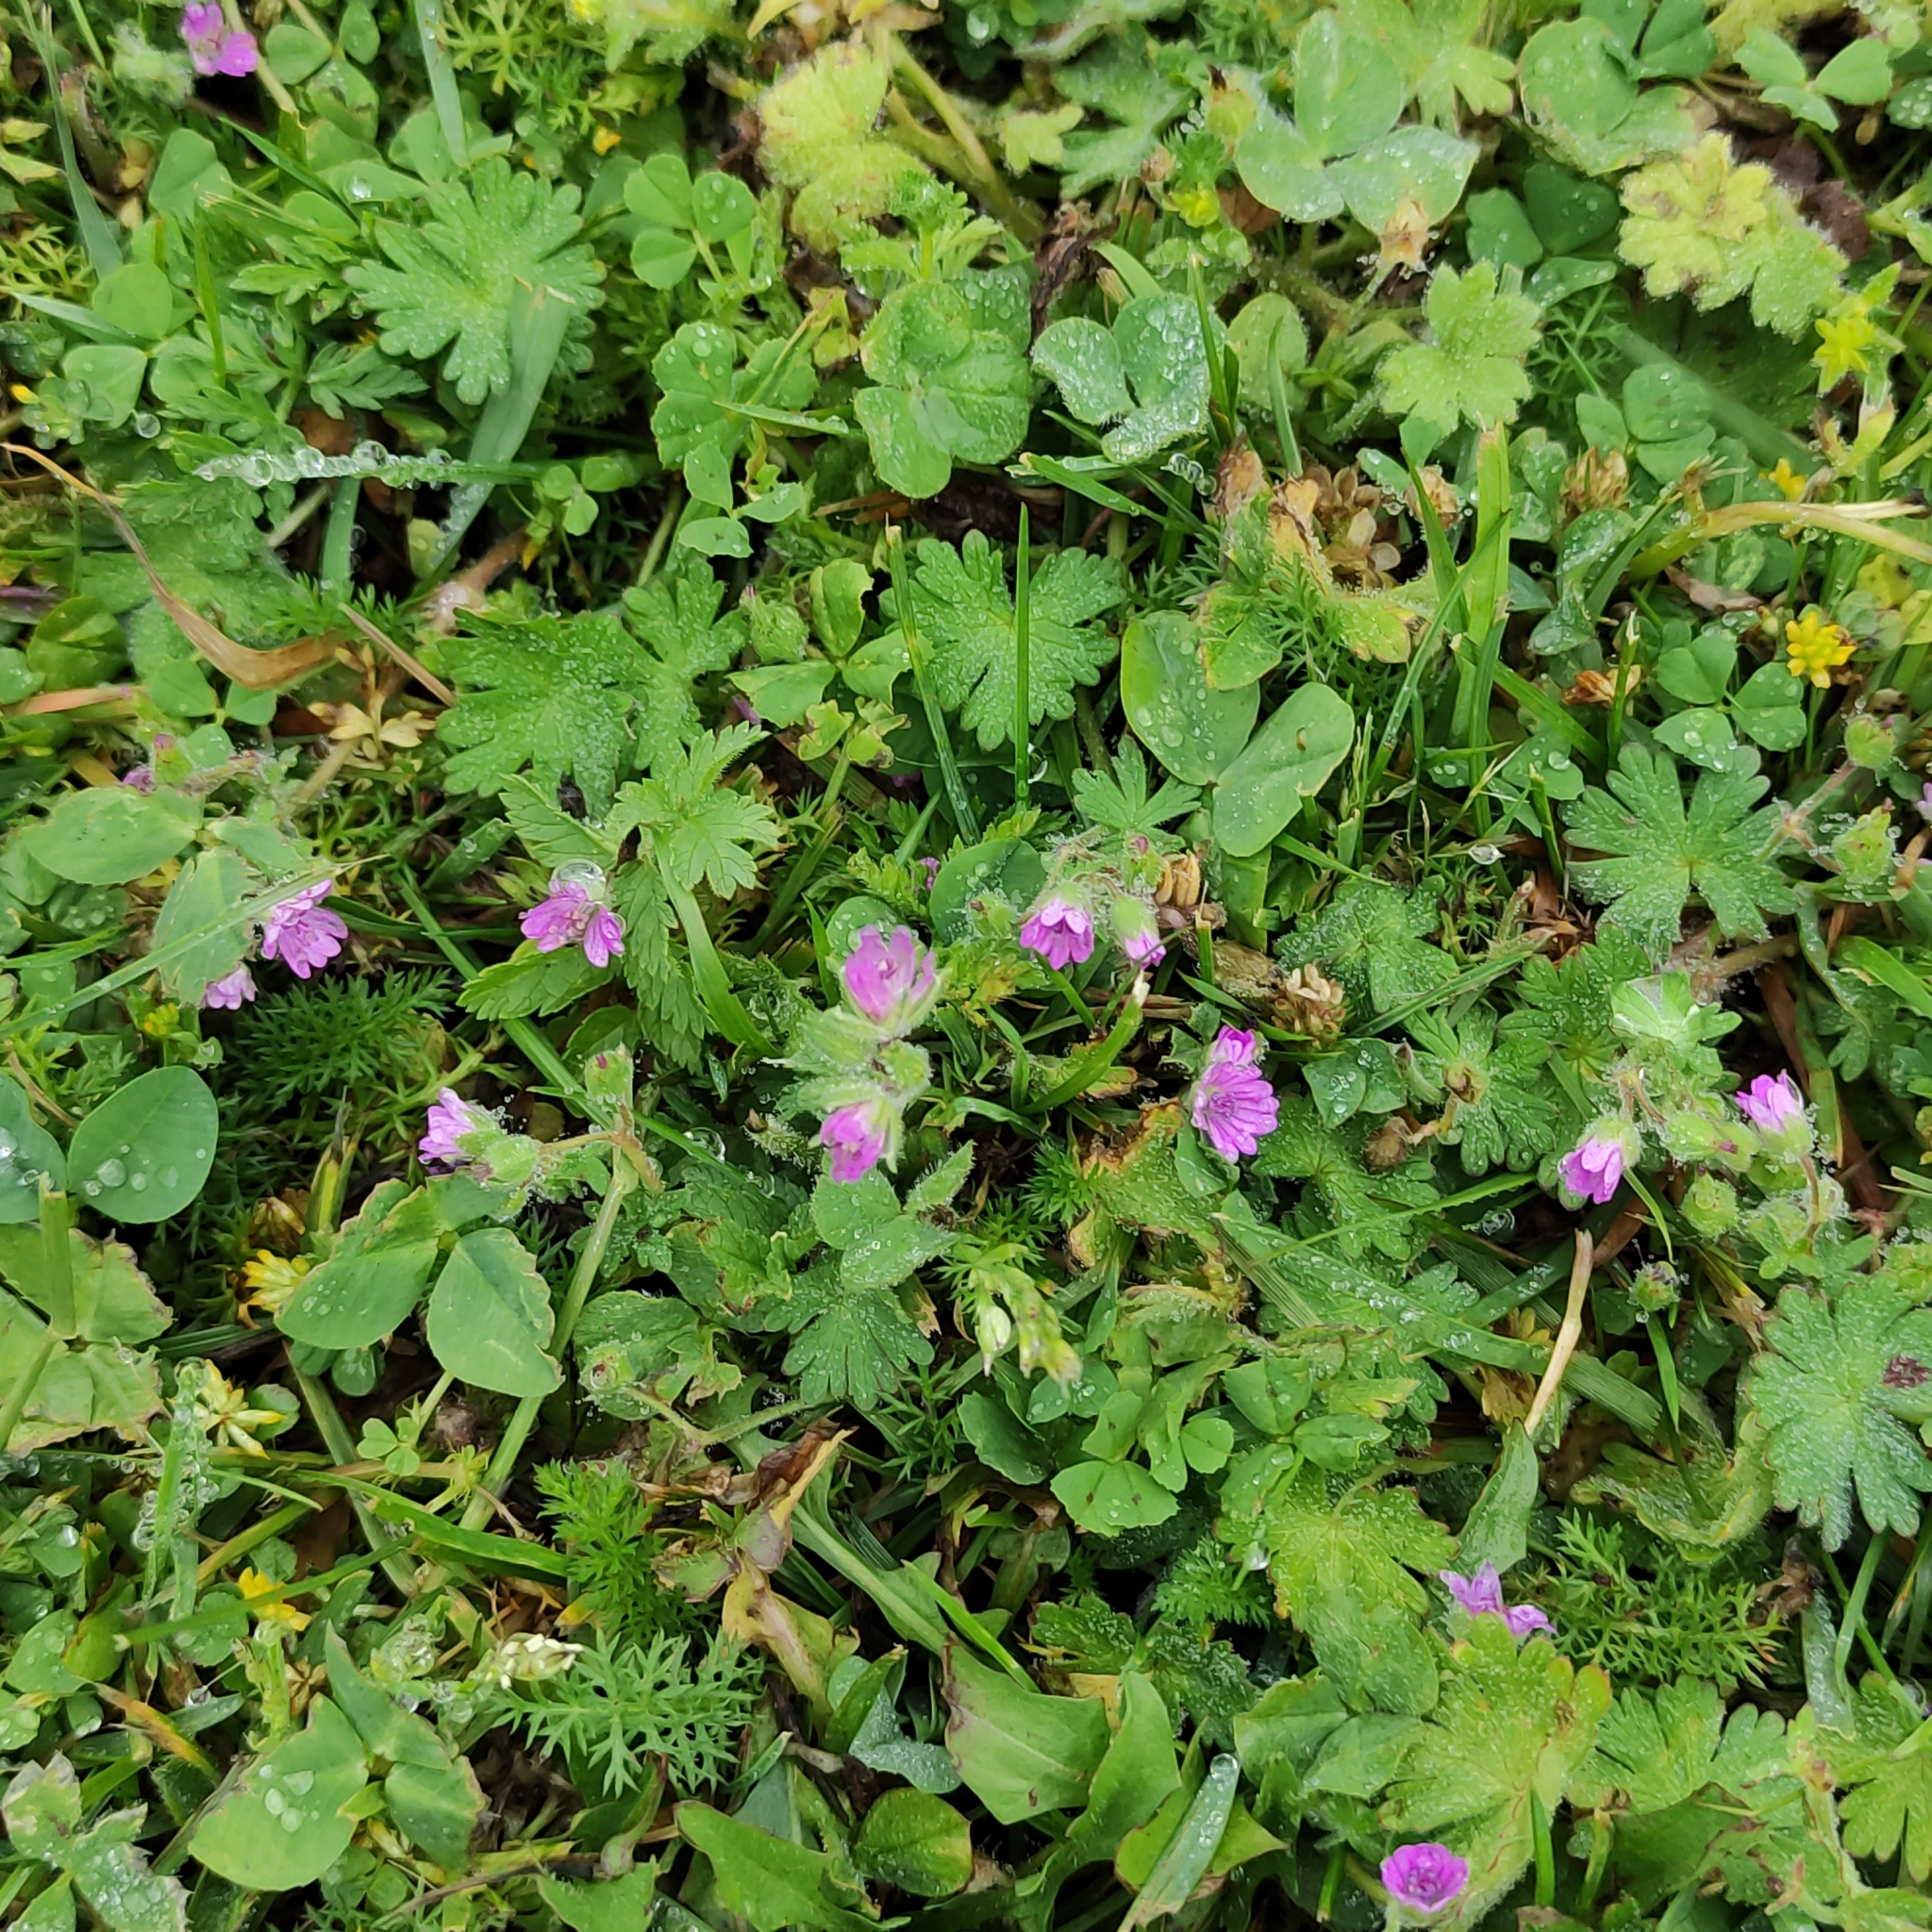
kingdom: Plantae
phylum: Tracheophyta
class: Magnoliopsida
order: Geraniales
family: Geraniaceae
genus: Geranium
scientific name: Geranium molle
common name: Dove's-foot crane's-bill
